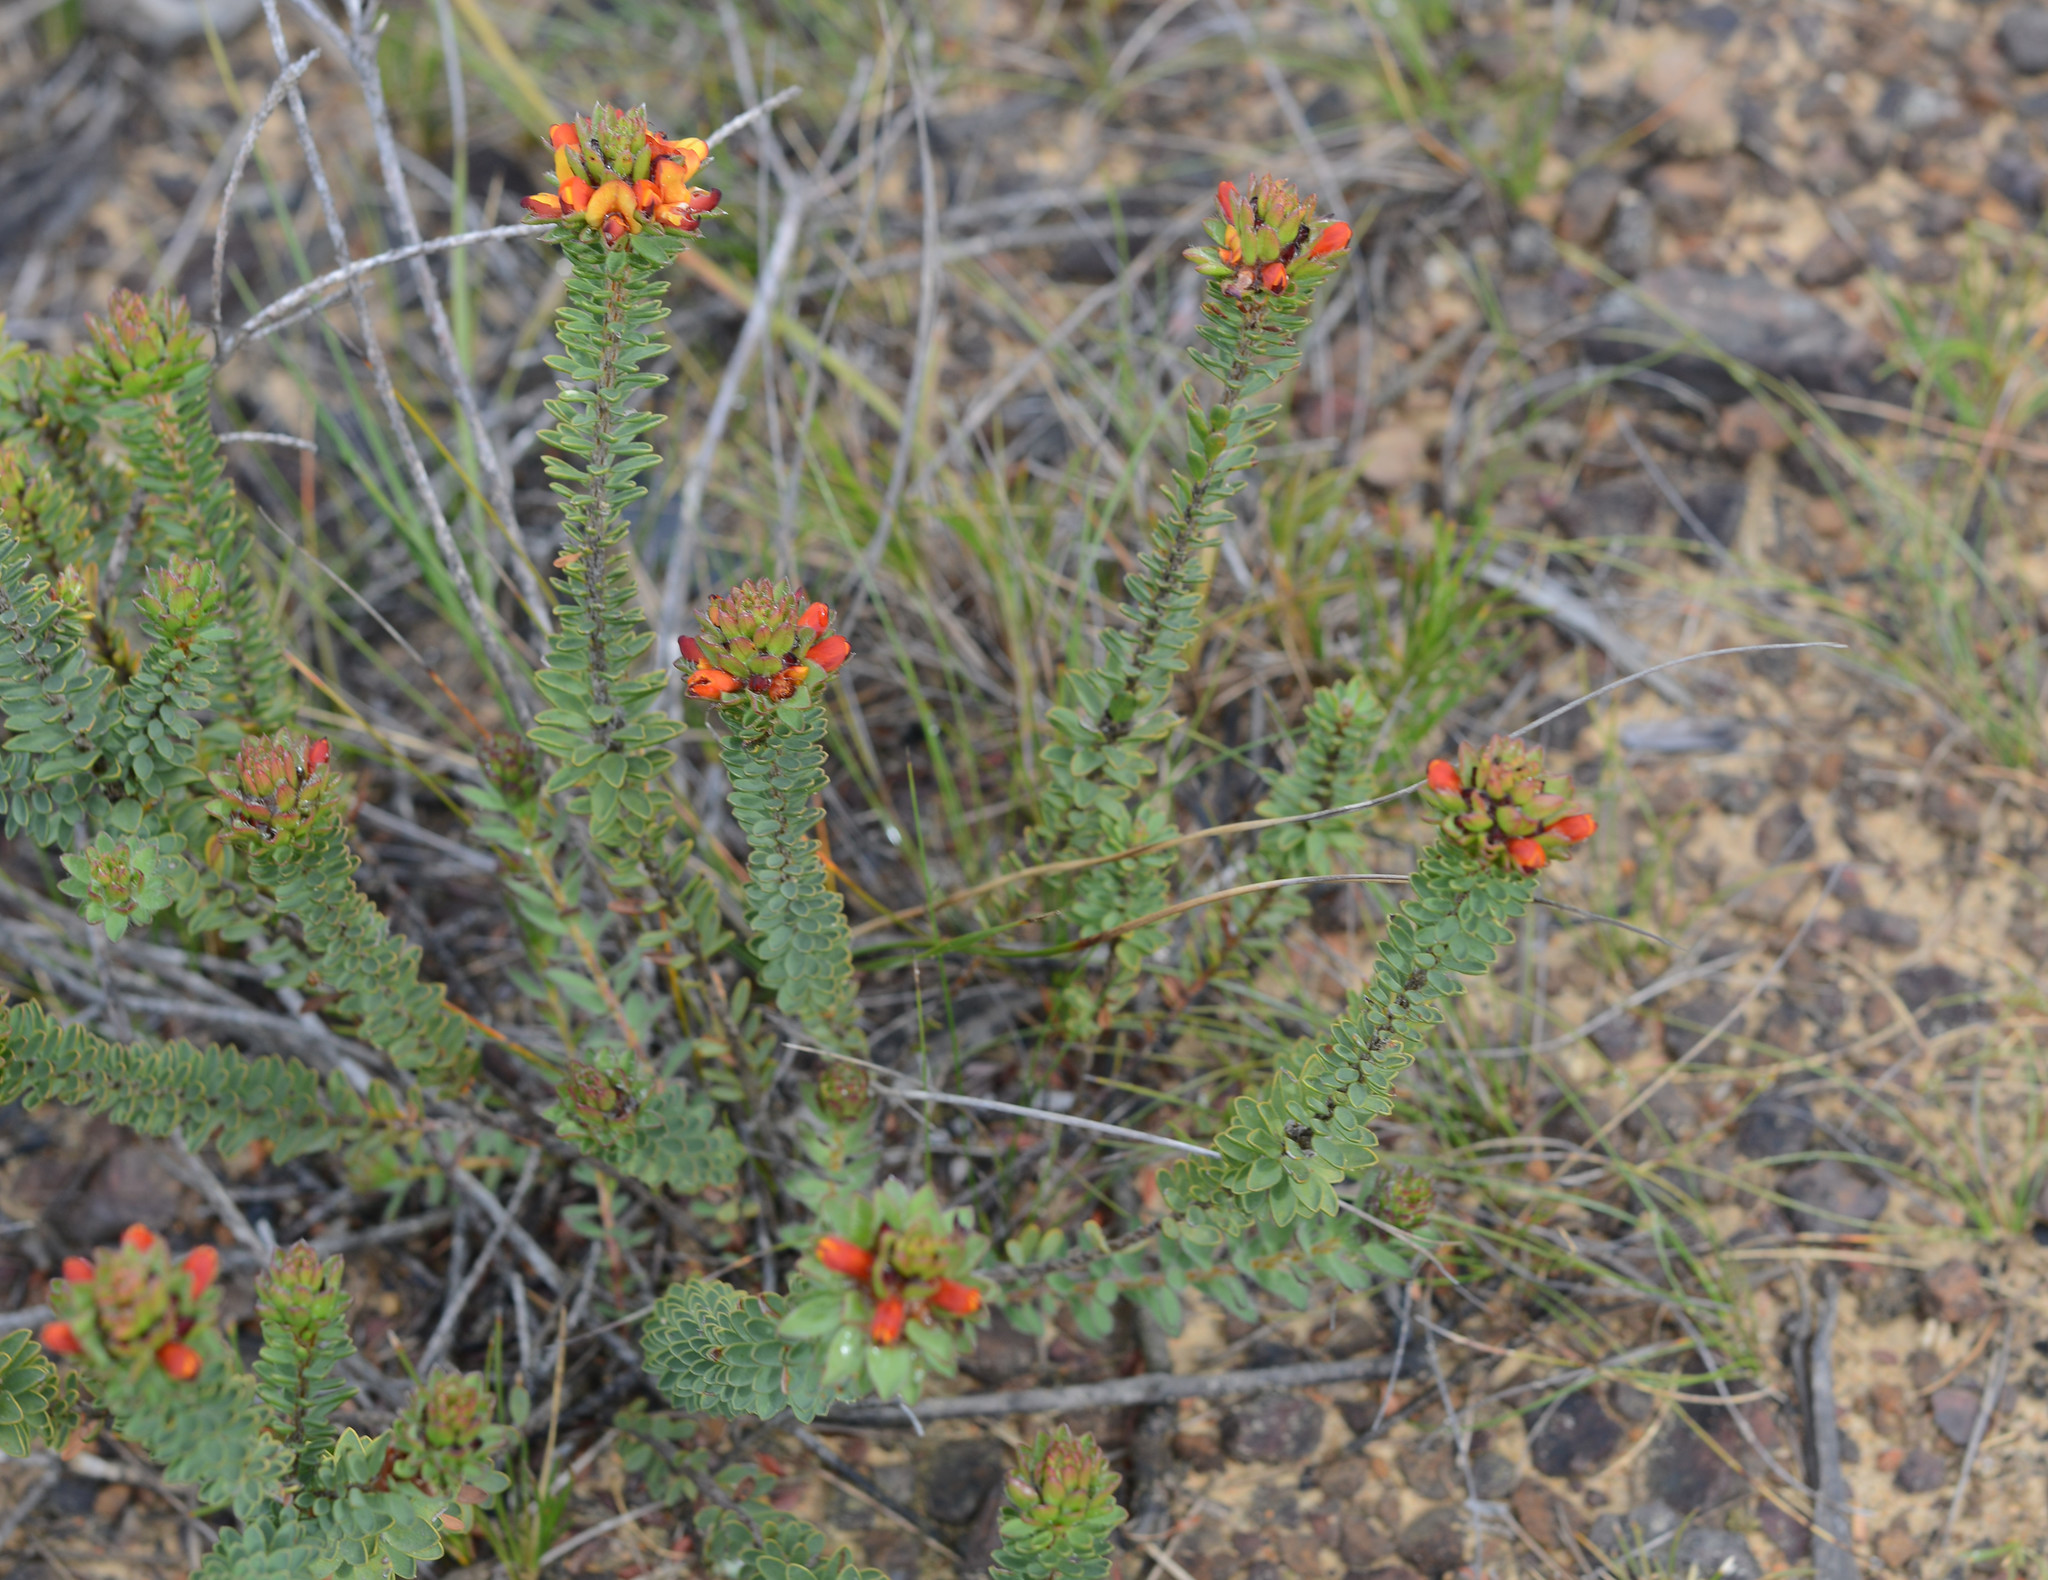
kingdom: Plantae
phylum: Tracheophyta
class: Magnoliopsida
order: Fabales
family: Fabaceae
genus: Pultenaea
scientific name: Pultenaea tuberculata
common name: Wreath bush-pea
